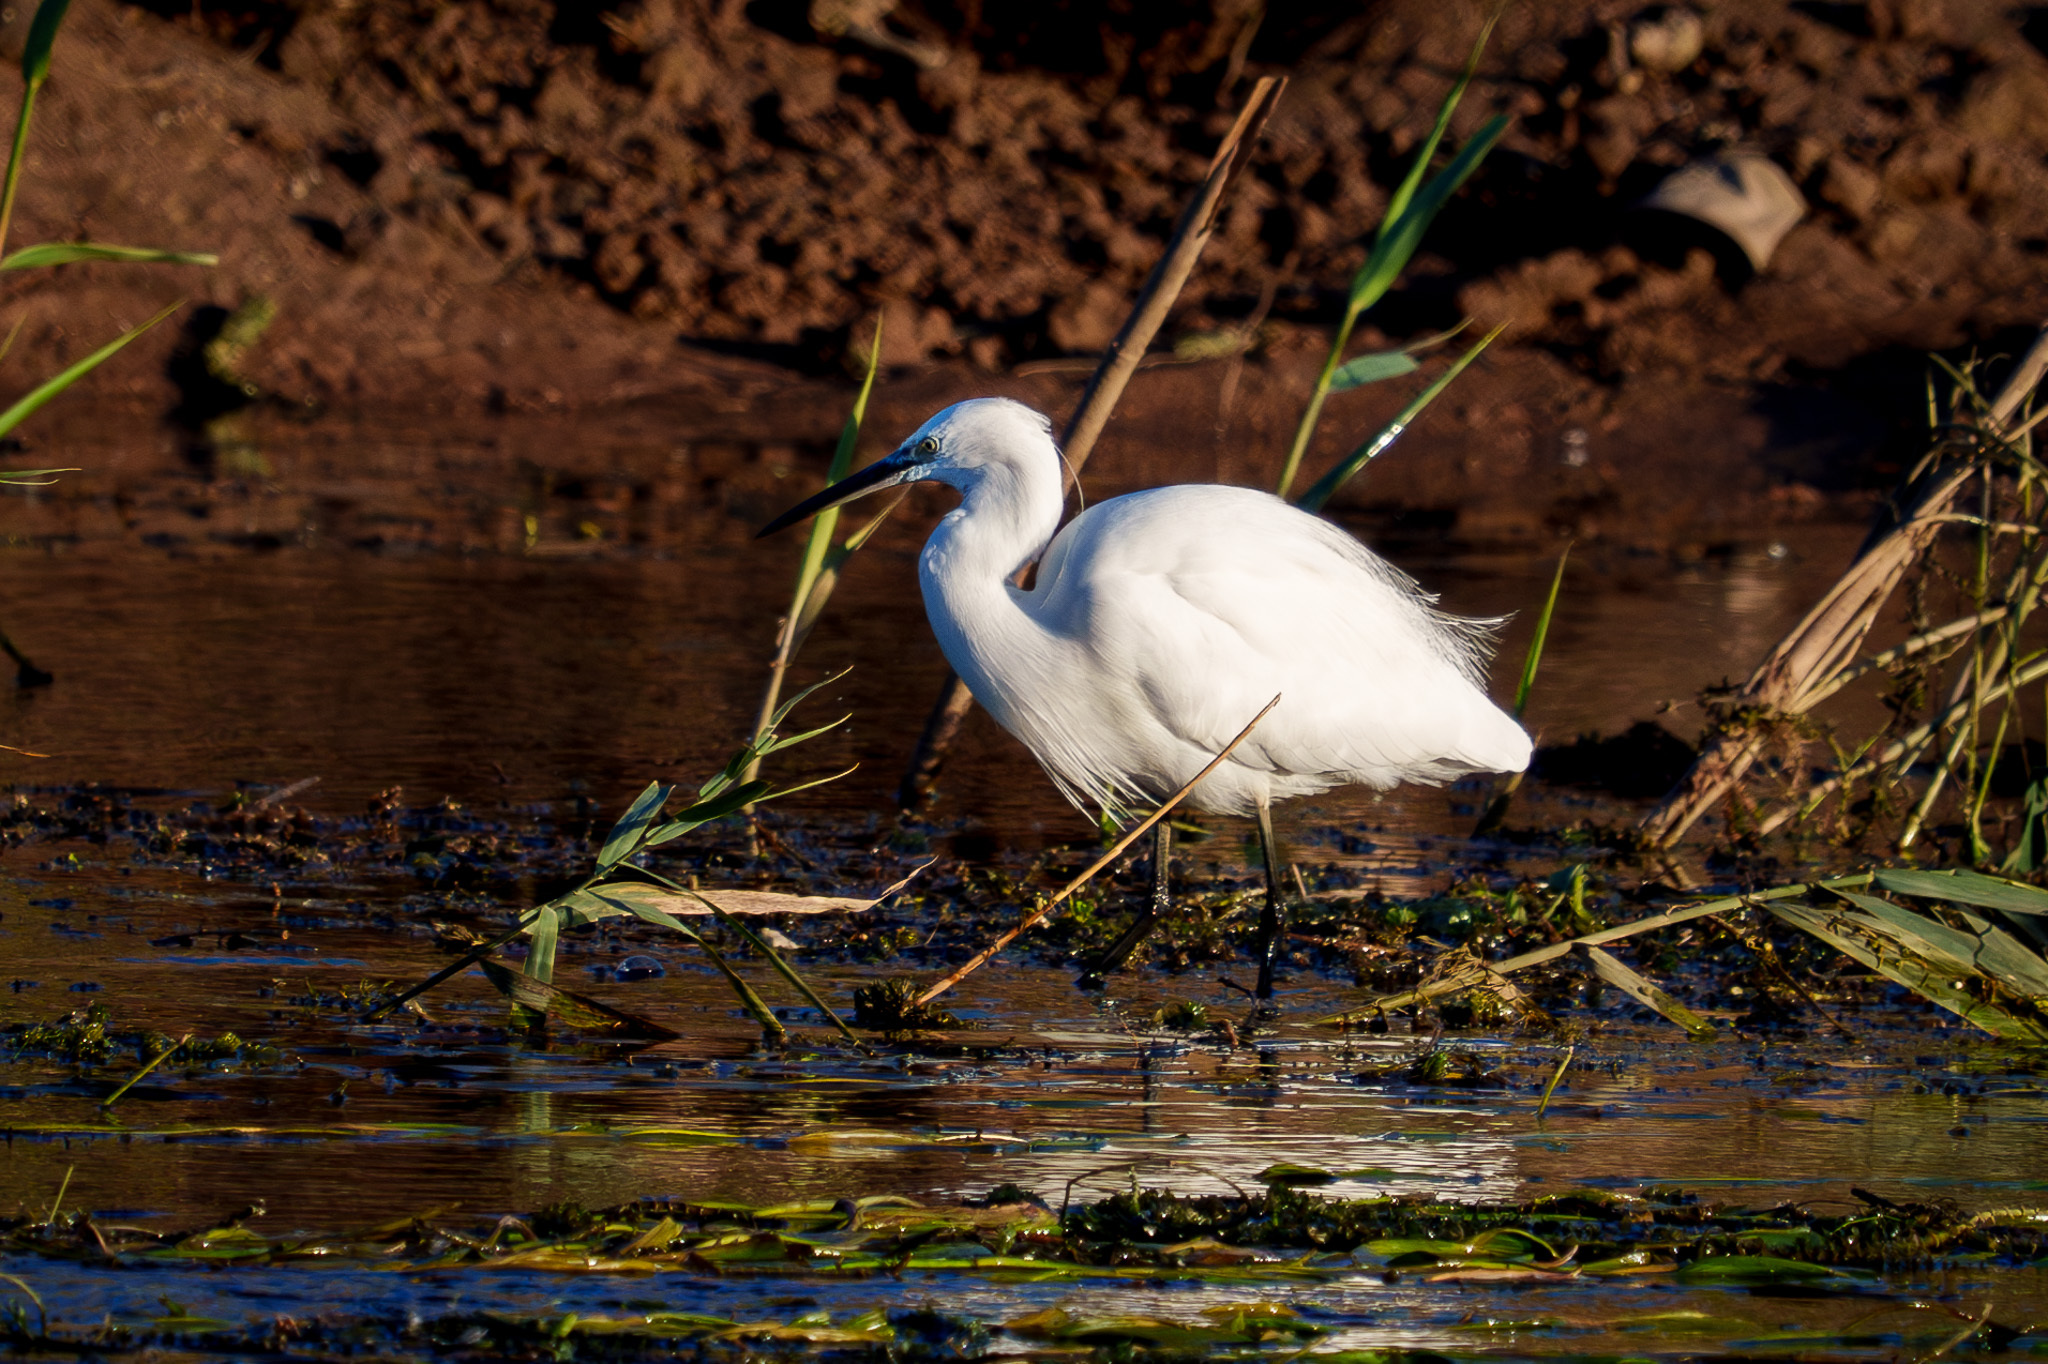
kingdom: Animalia
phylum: Chordata
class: Aves
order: Pelecaniformes
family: Ardeidae
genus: Egretta
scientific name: Egretta garzetta
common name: Little egret
